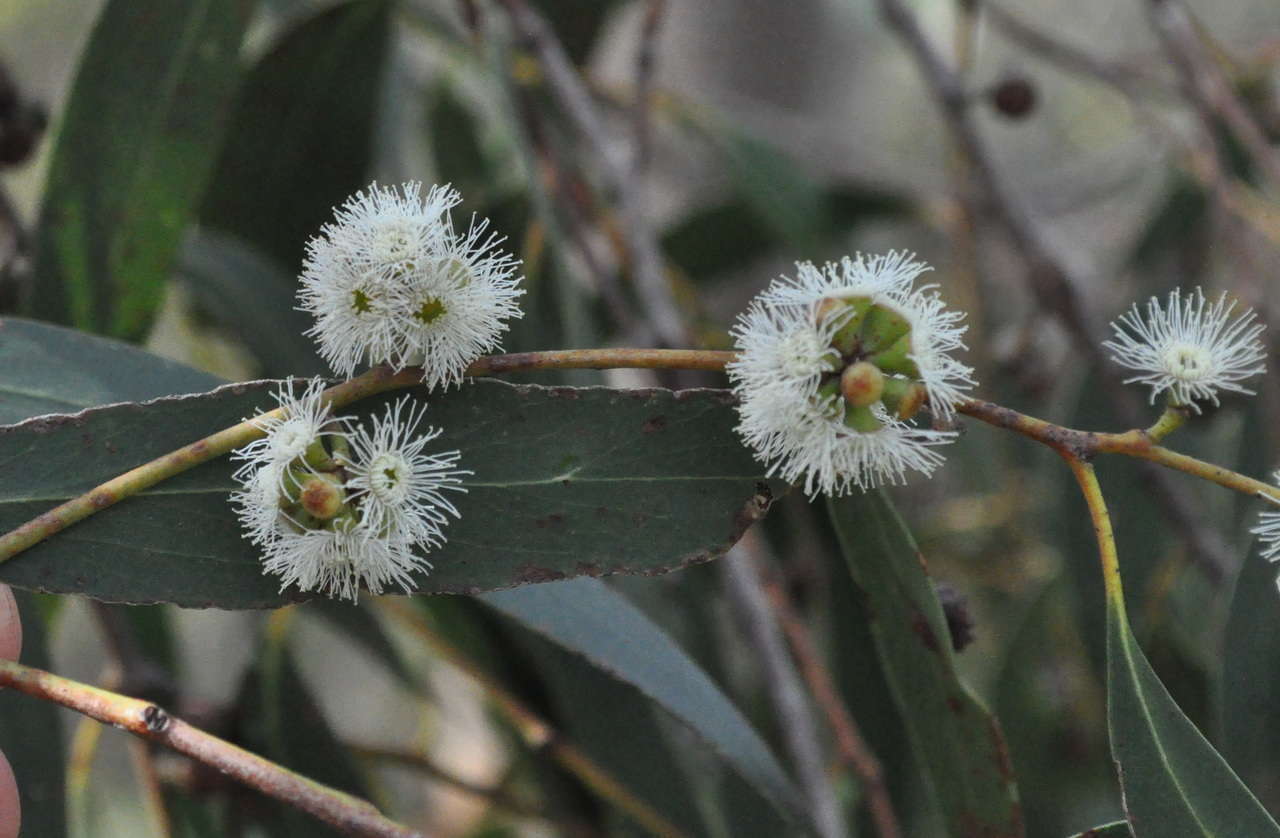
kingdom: Plantae
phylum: Tracheophyta
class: Magnoliopsida
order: Myrtales
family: Myrtaceae
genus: Eucalyptus
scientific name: Eucalyptus falciformis
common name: Grampians peppermint
